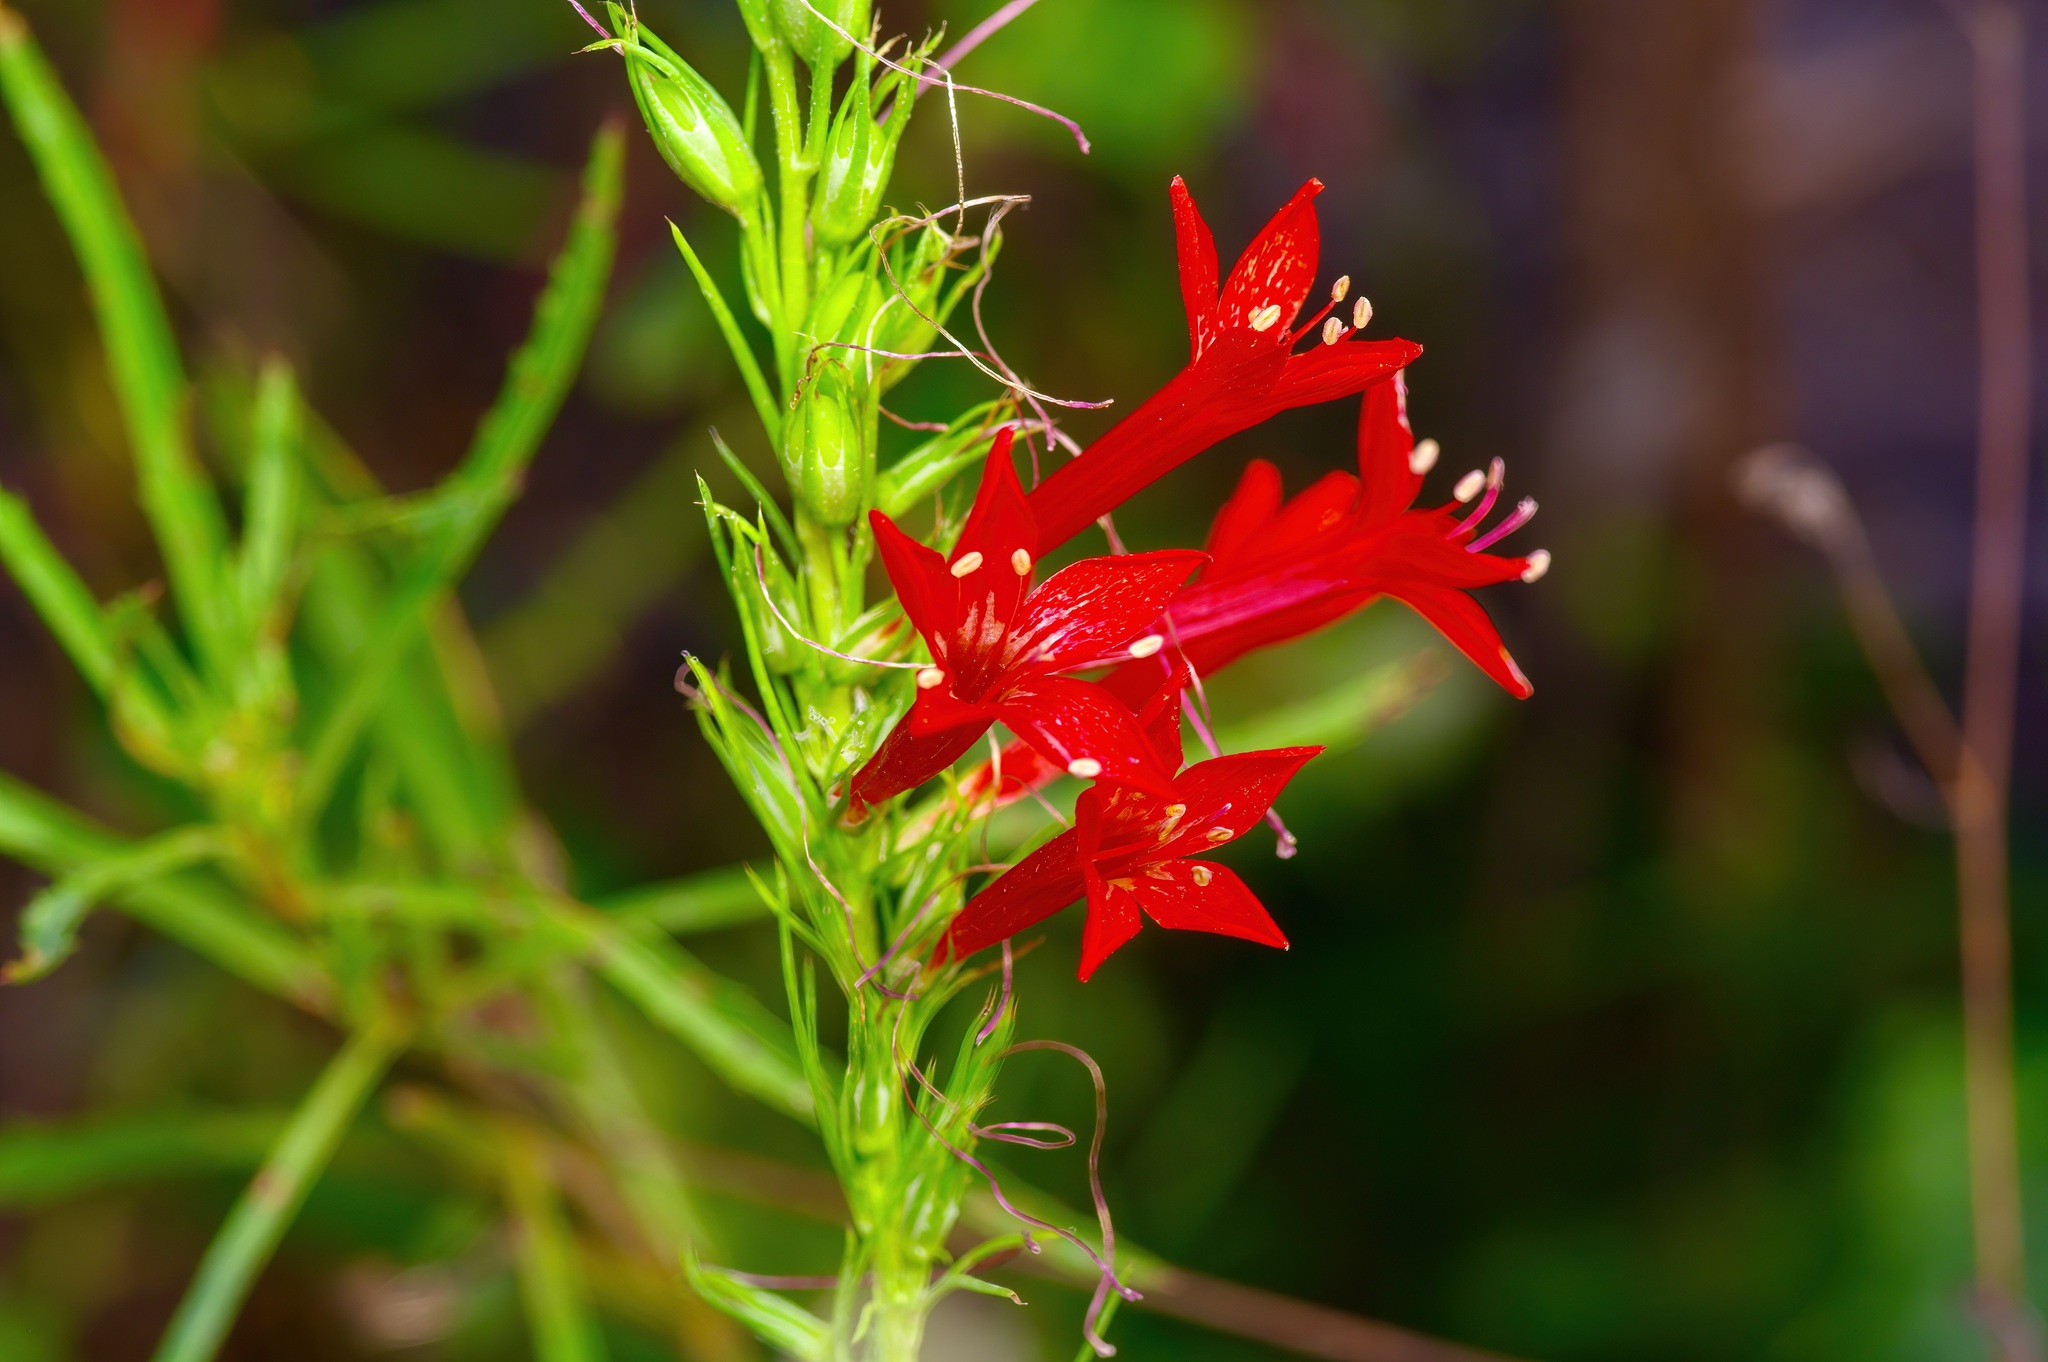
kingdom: Plantae
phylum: Tracheophyta
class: Magnoliopsida
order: Ericales
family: Polemoniaceae
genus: Ipomopsis
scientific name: Ipomopsis rubra
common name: Skyrocket
